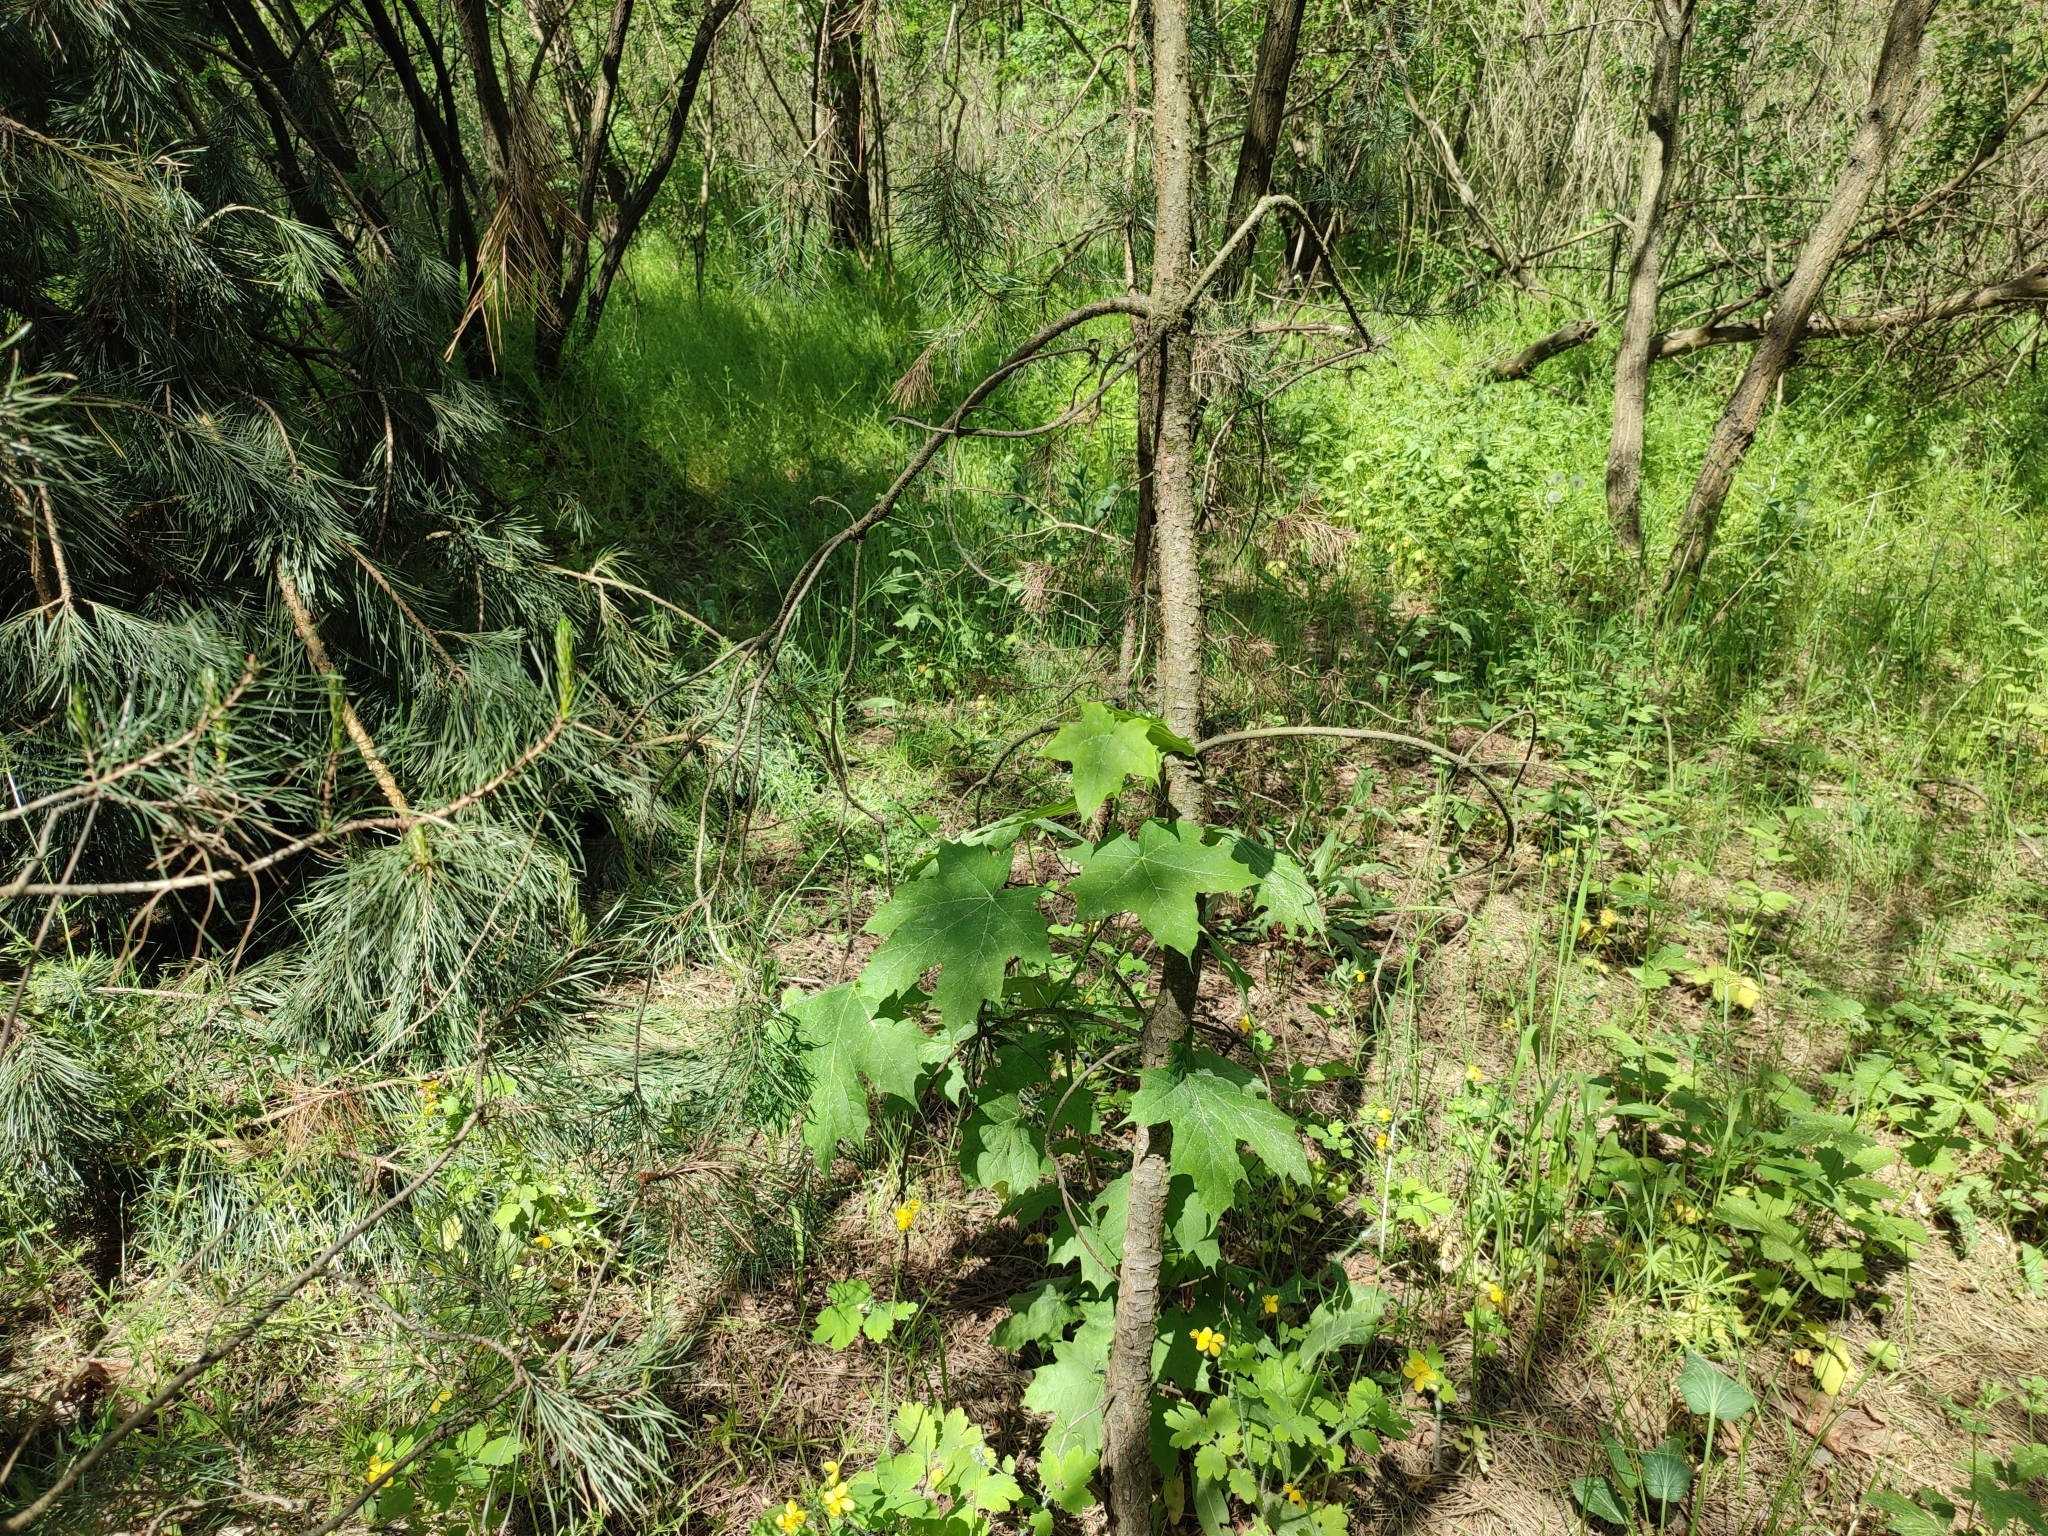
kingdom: Plantae
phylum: Tracheophyta
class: Magnoliopsida
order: Sapindales
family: Sapindaceae
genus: Acer
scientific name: Acer platanoides
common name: Norway maple
